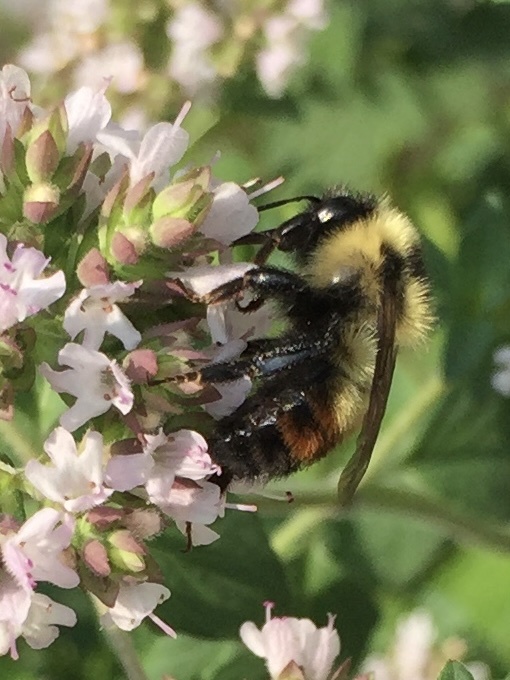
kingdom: Animalia
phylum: Arthropoda
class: Insecta
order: Hymenoptera
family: Apidae
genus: Bombus
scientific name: Bombus rufocinctus
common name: Red-belted bumble bee
